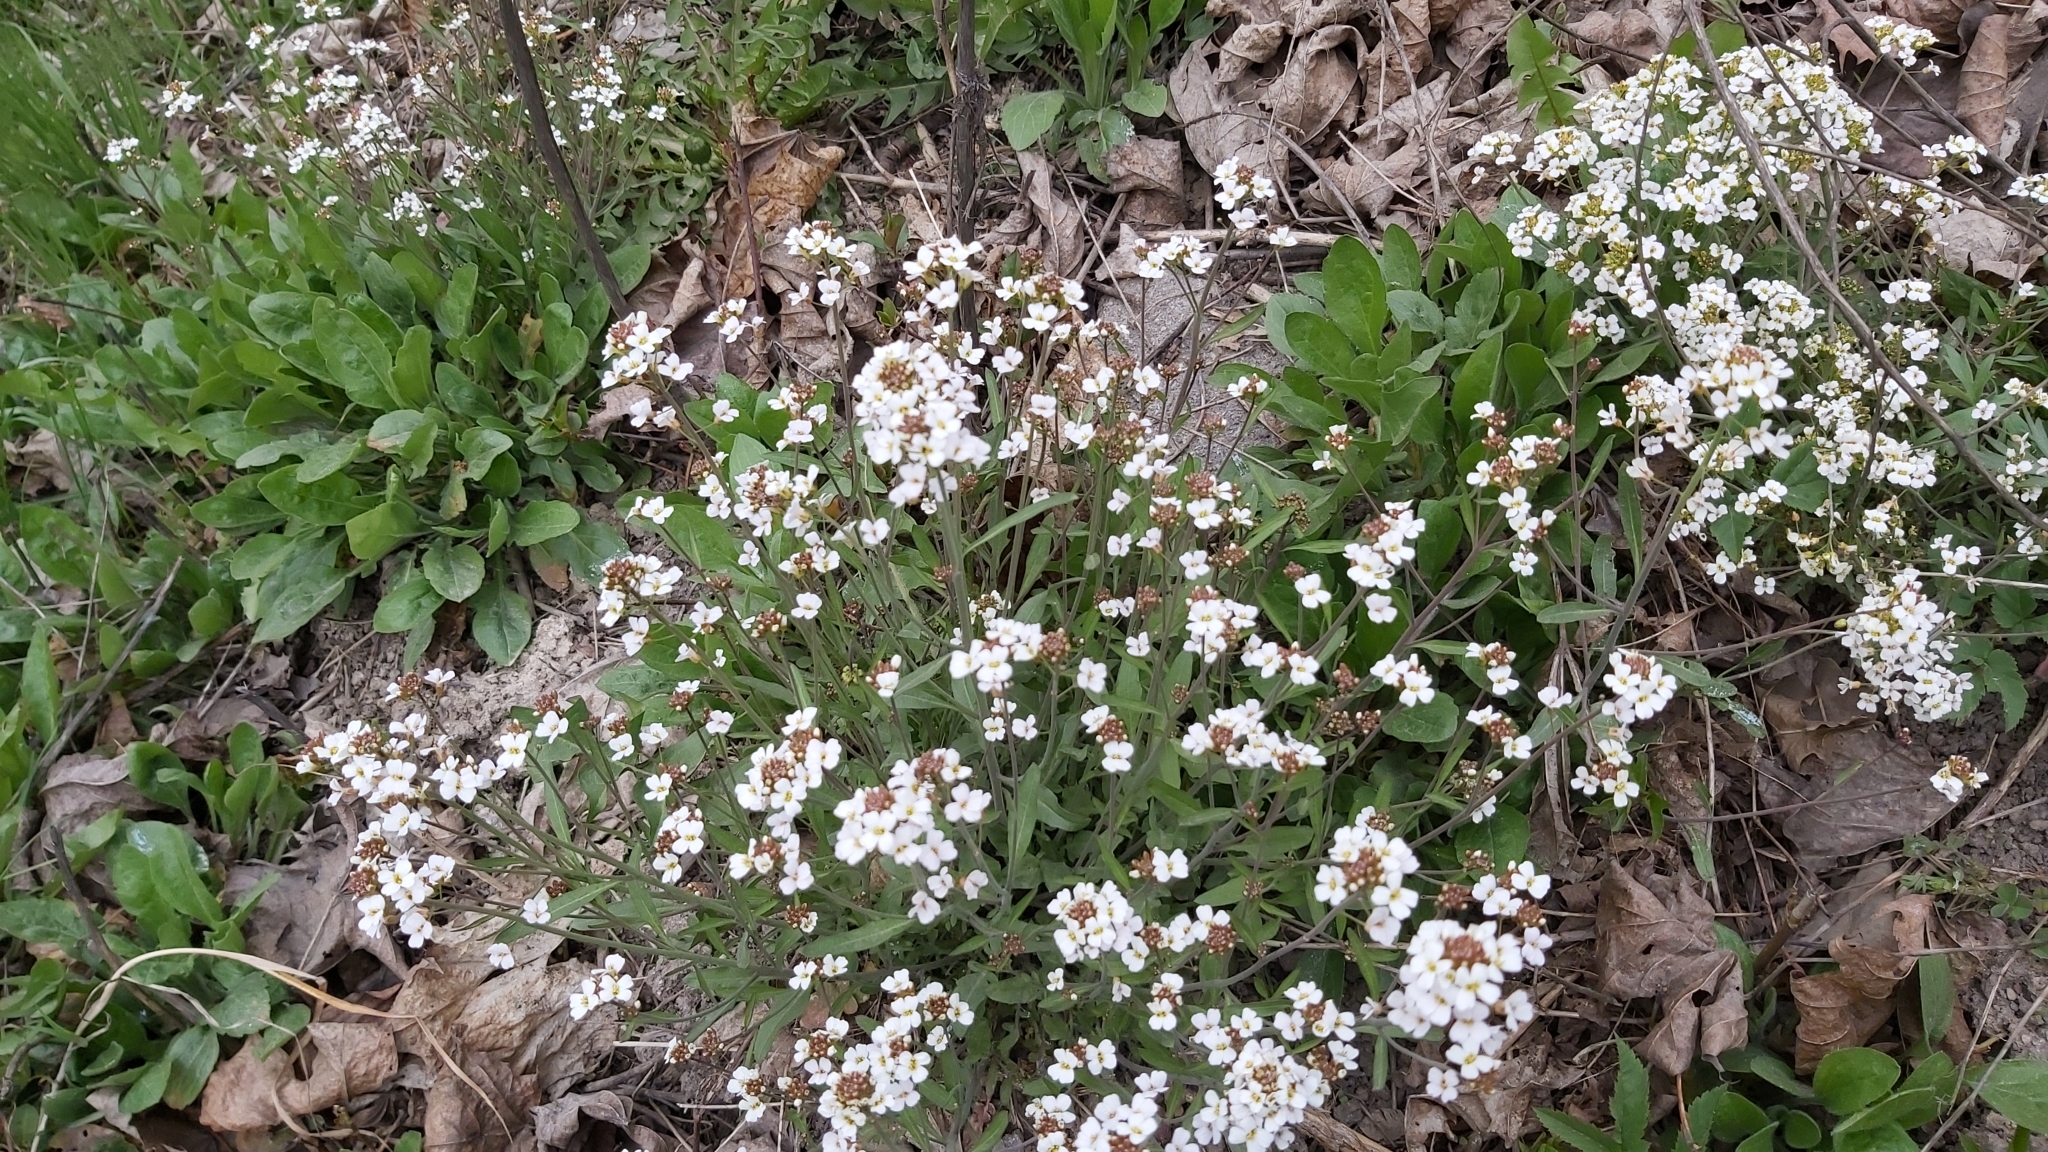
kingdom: Plantae
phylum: Tracheophyta
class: Magnoliopsida
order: Brassicales
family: Brassicaceae
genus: Arabidopsis
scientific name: Arabidopsis arenosa
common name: Sand rock-cress
